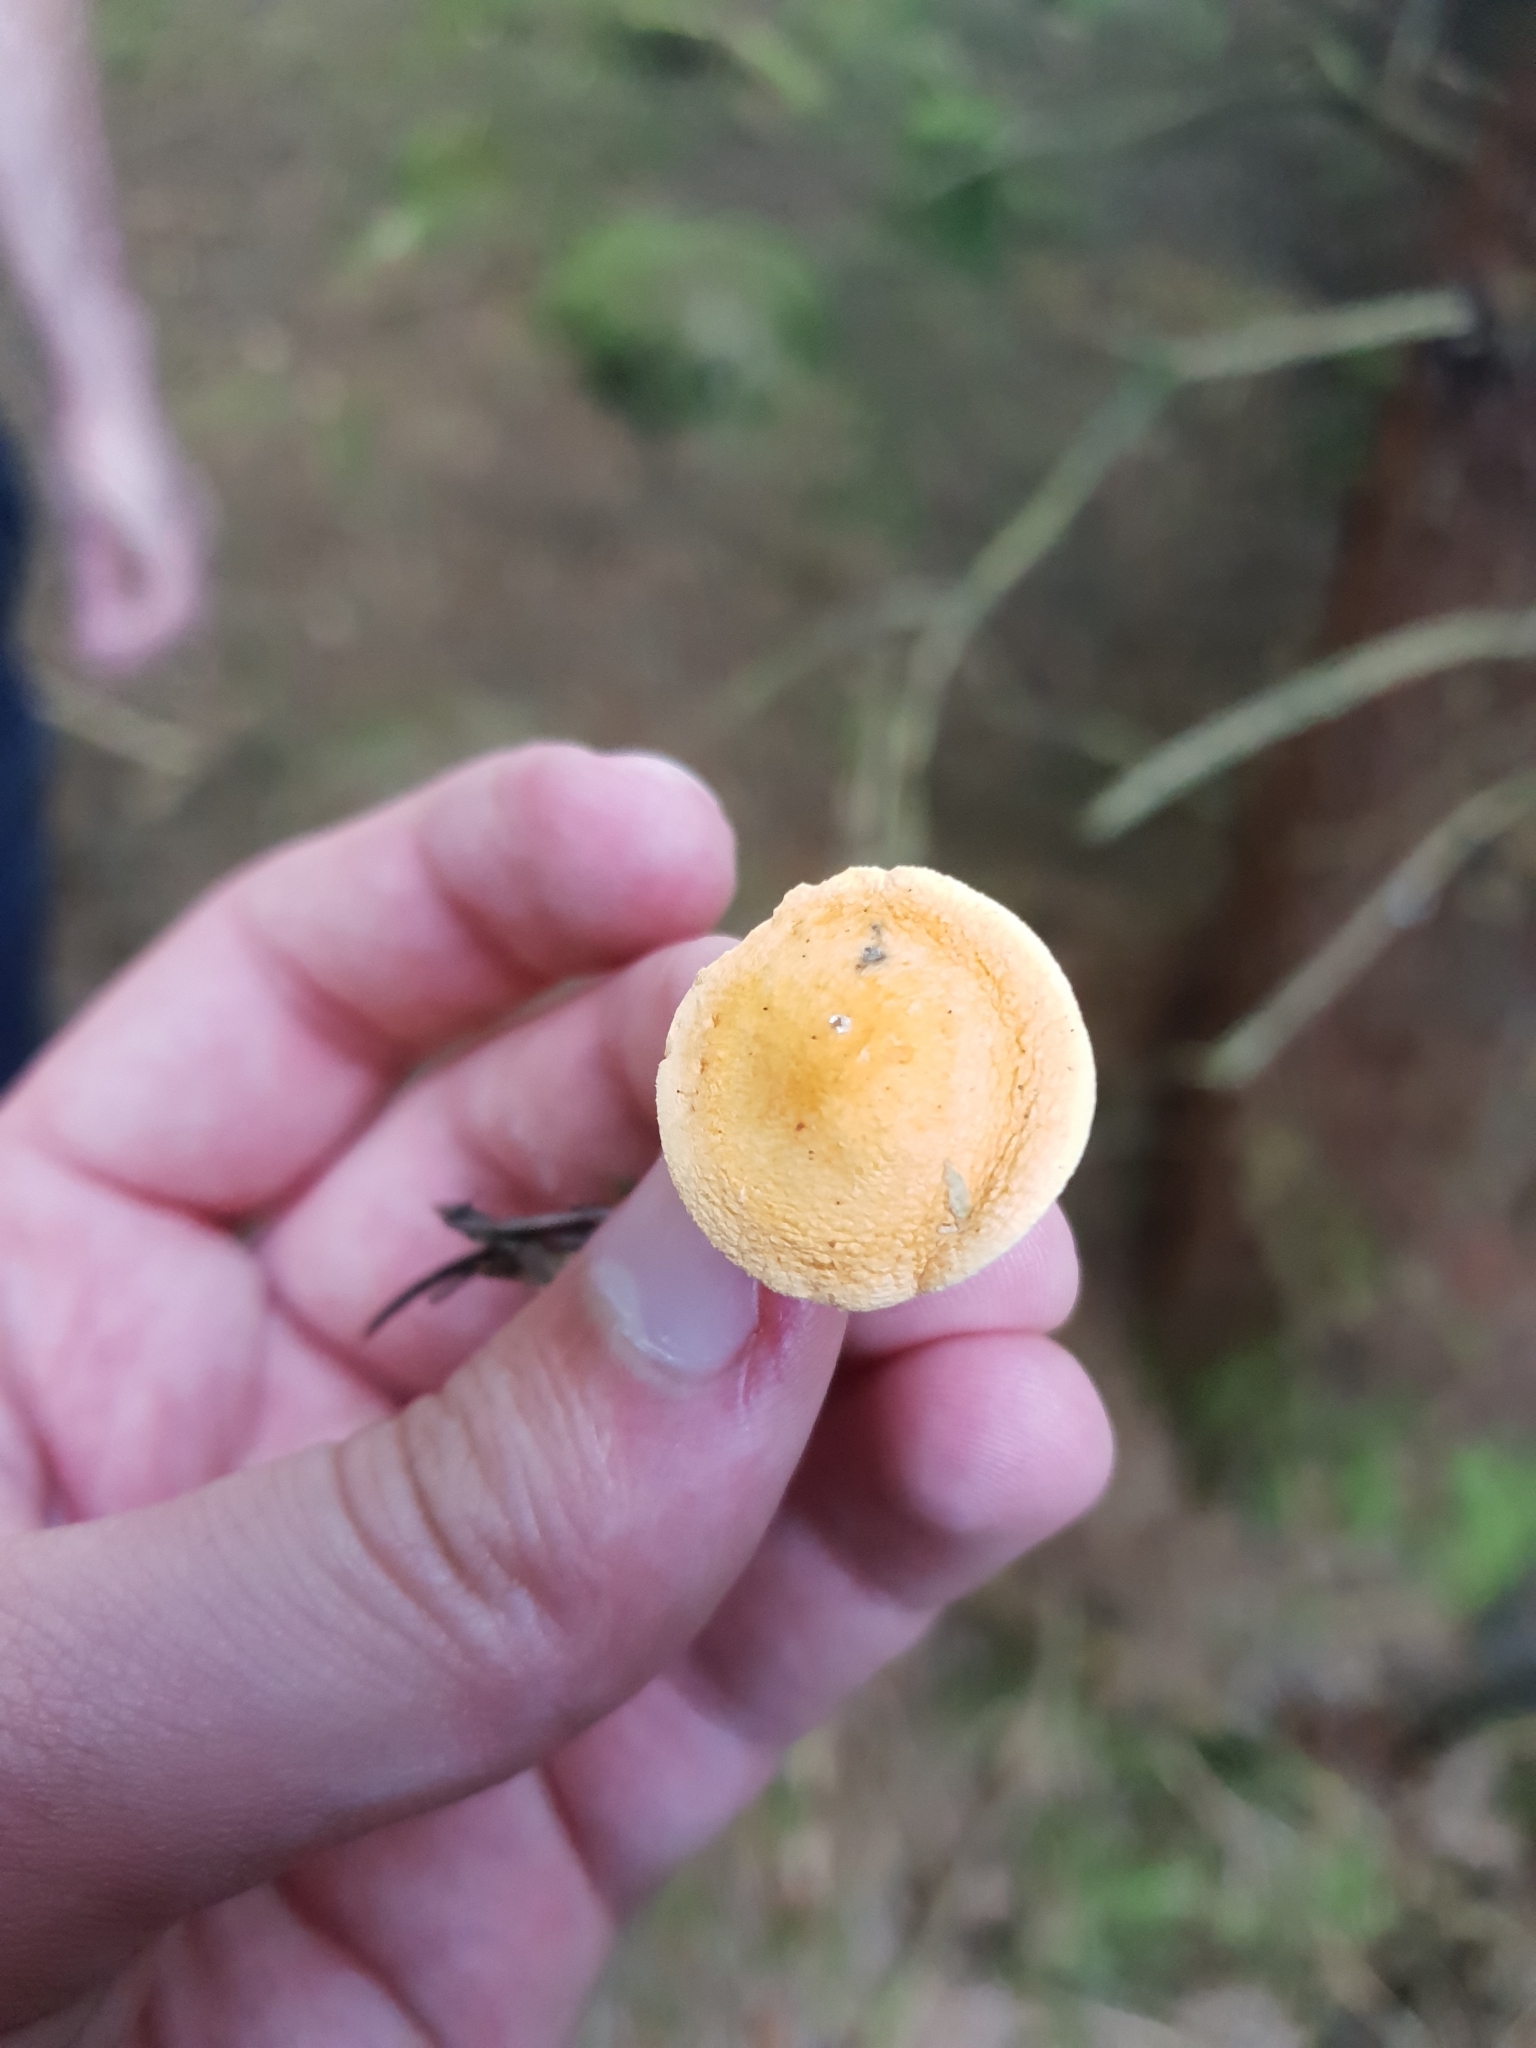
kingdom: Fungi
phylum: Basidiomycota
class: Agaricomycetes
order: Boletales
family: Hygrophoropsidaceae
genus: Hygrophoropsis
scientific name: Hygrophoropsis aurantiaca
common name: False chanterelle
